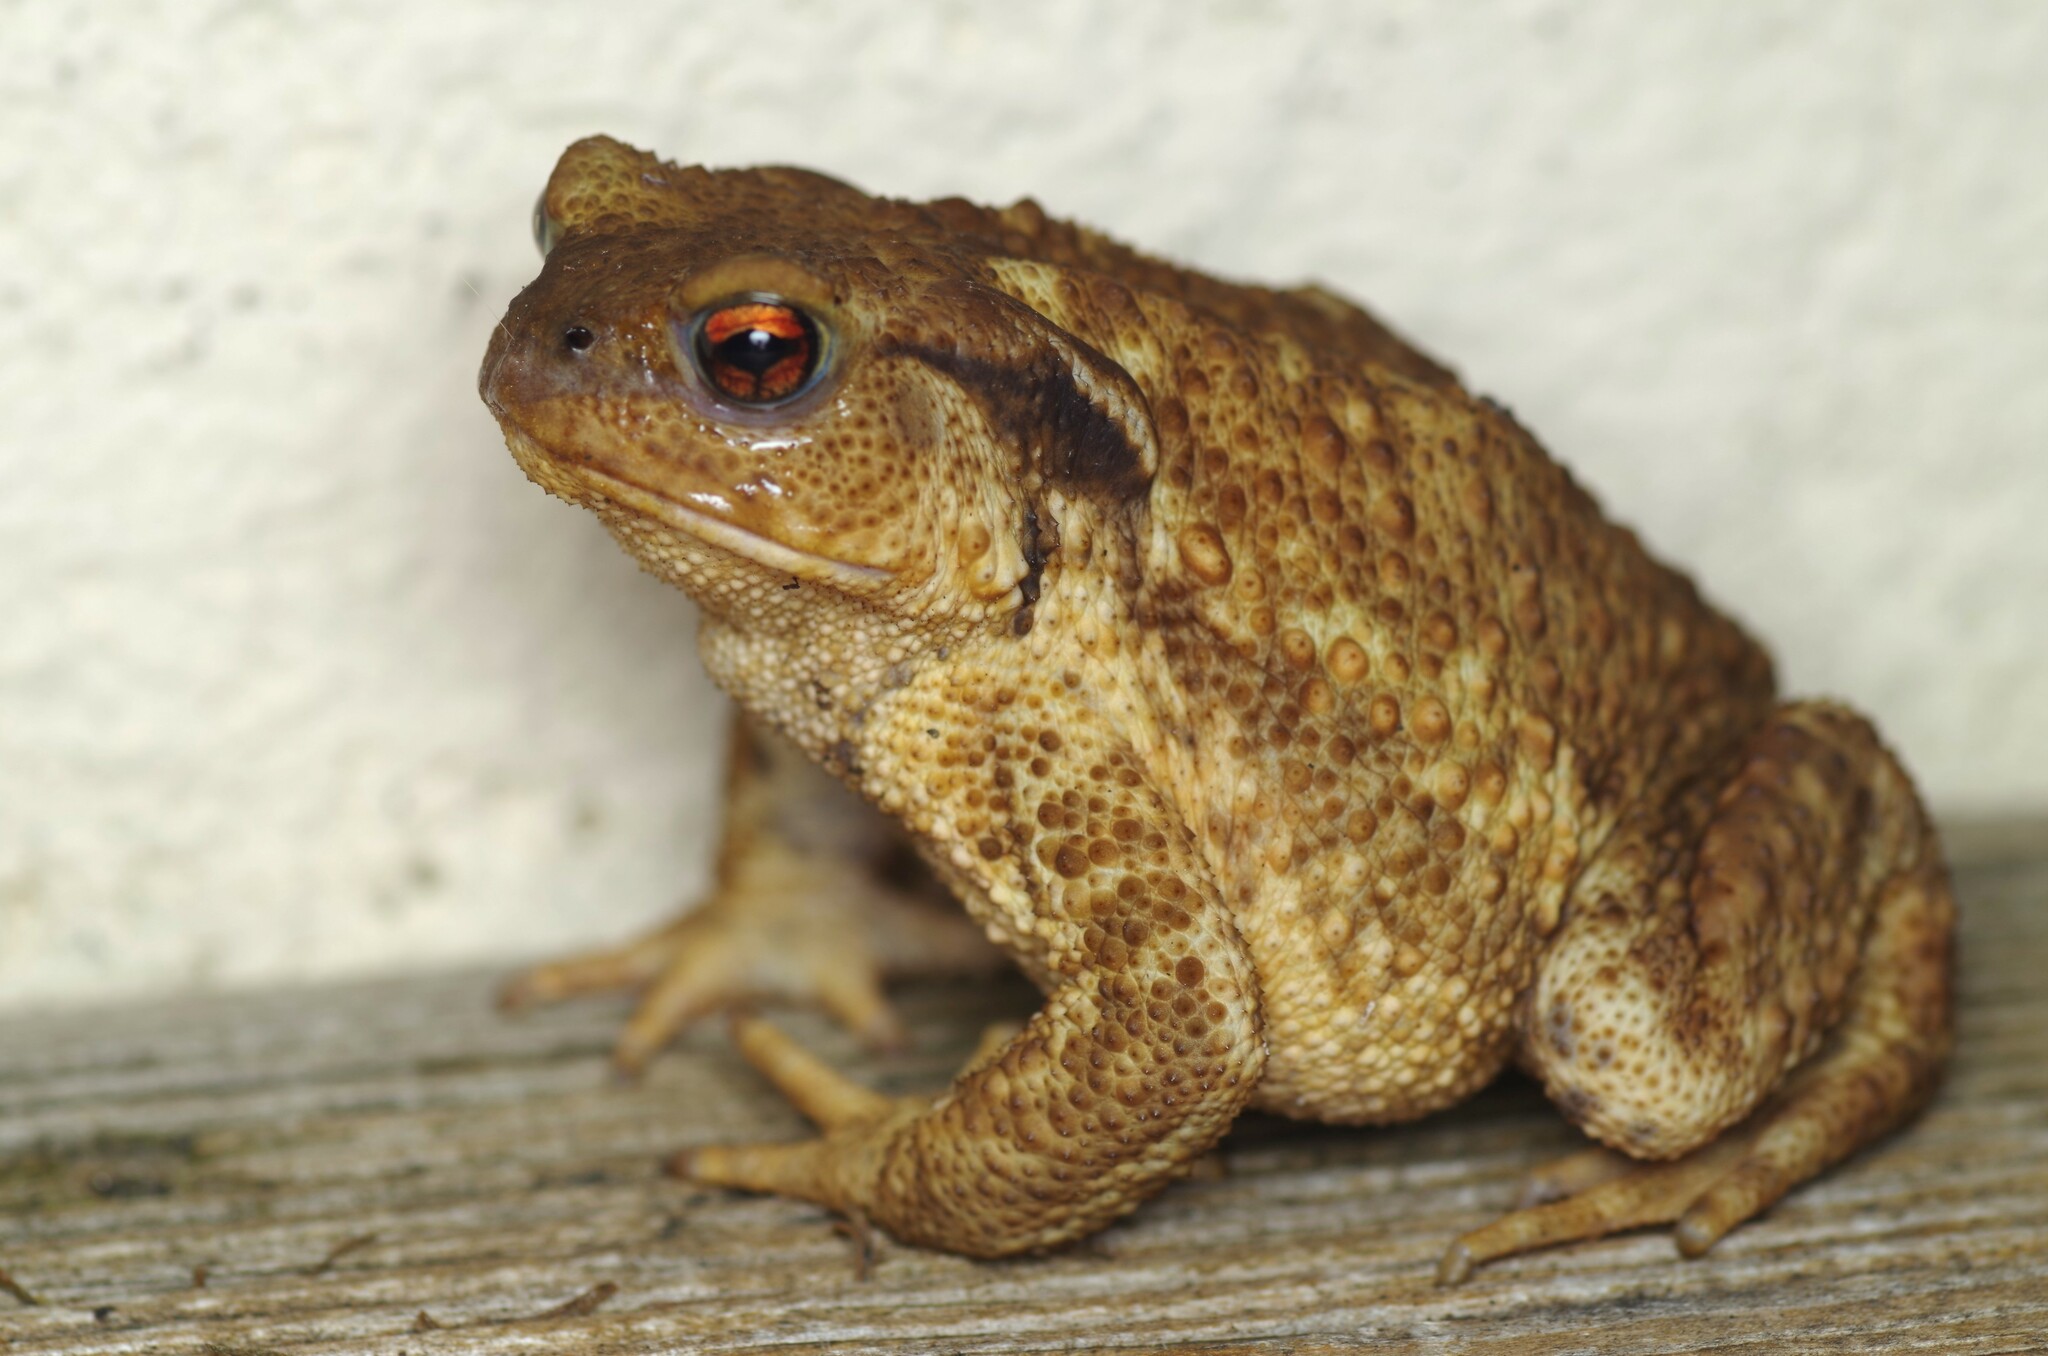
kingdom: Animalia
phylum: Chordata
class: Amphibia
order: Anura
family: Bufonidae
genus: Bufo
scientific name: Bufo spinosus
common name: Western common toad
